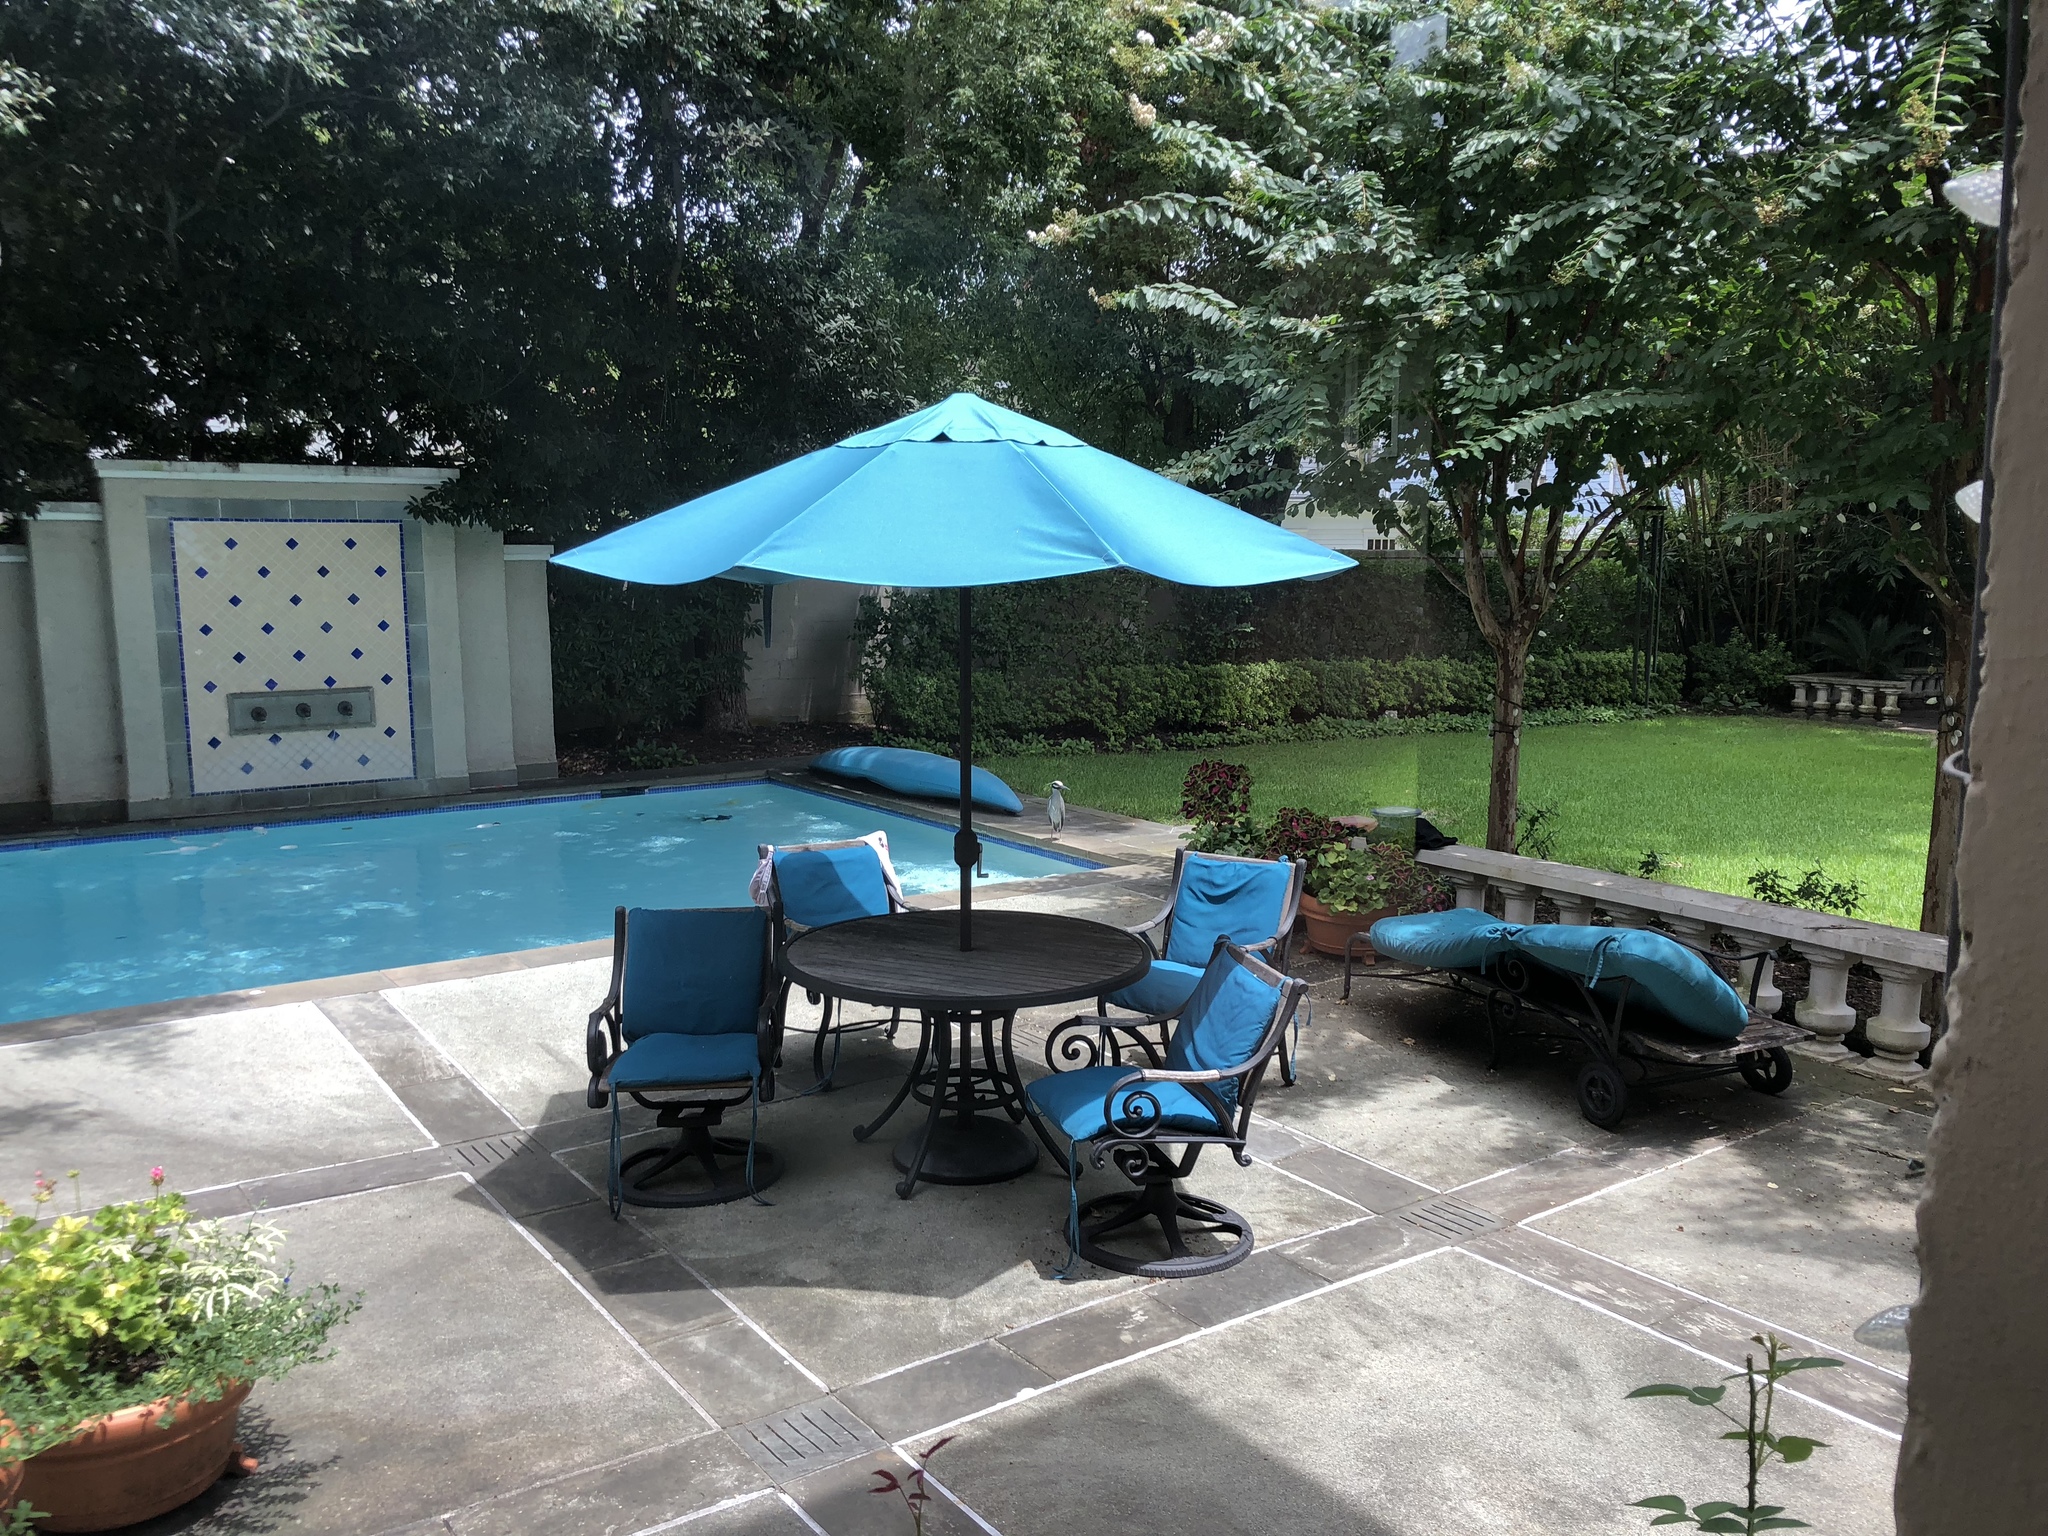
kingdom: Animalia
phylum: Chordata
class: Aves
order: Pelecaniformes
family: Ardeidae
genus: Nyctanassa
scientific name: Nyctanassa violacea
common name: Yellow-crowned night heron
